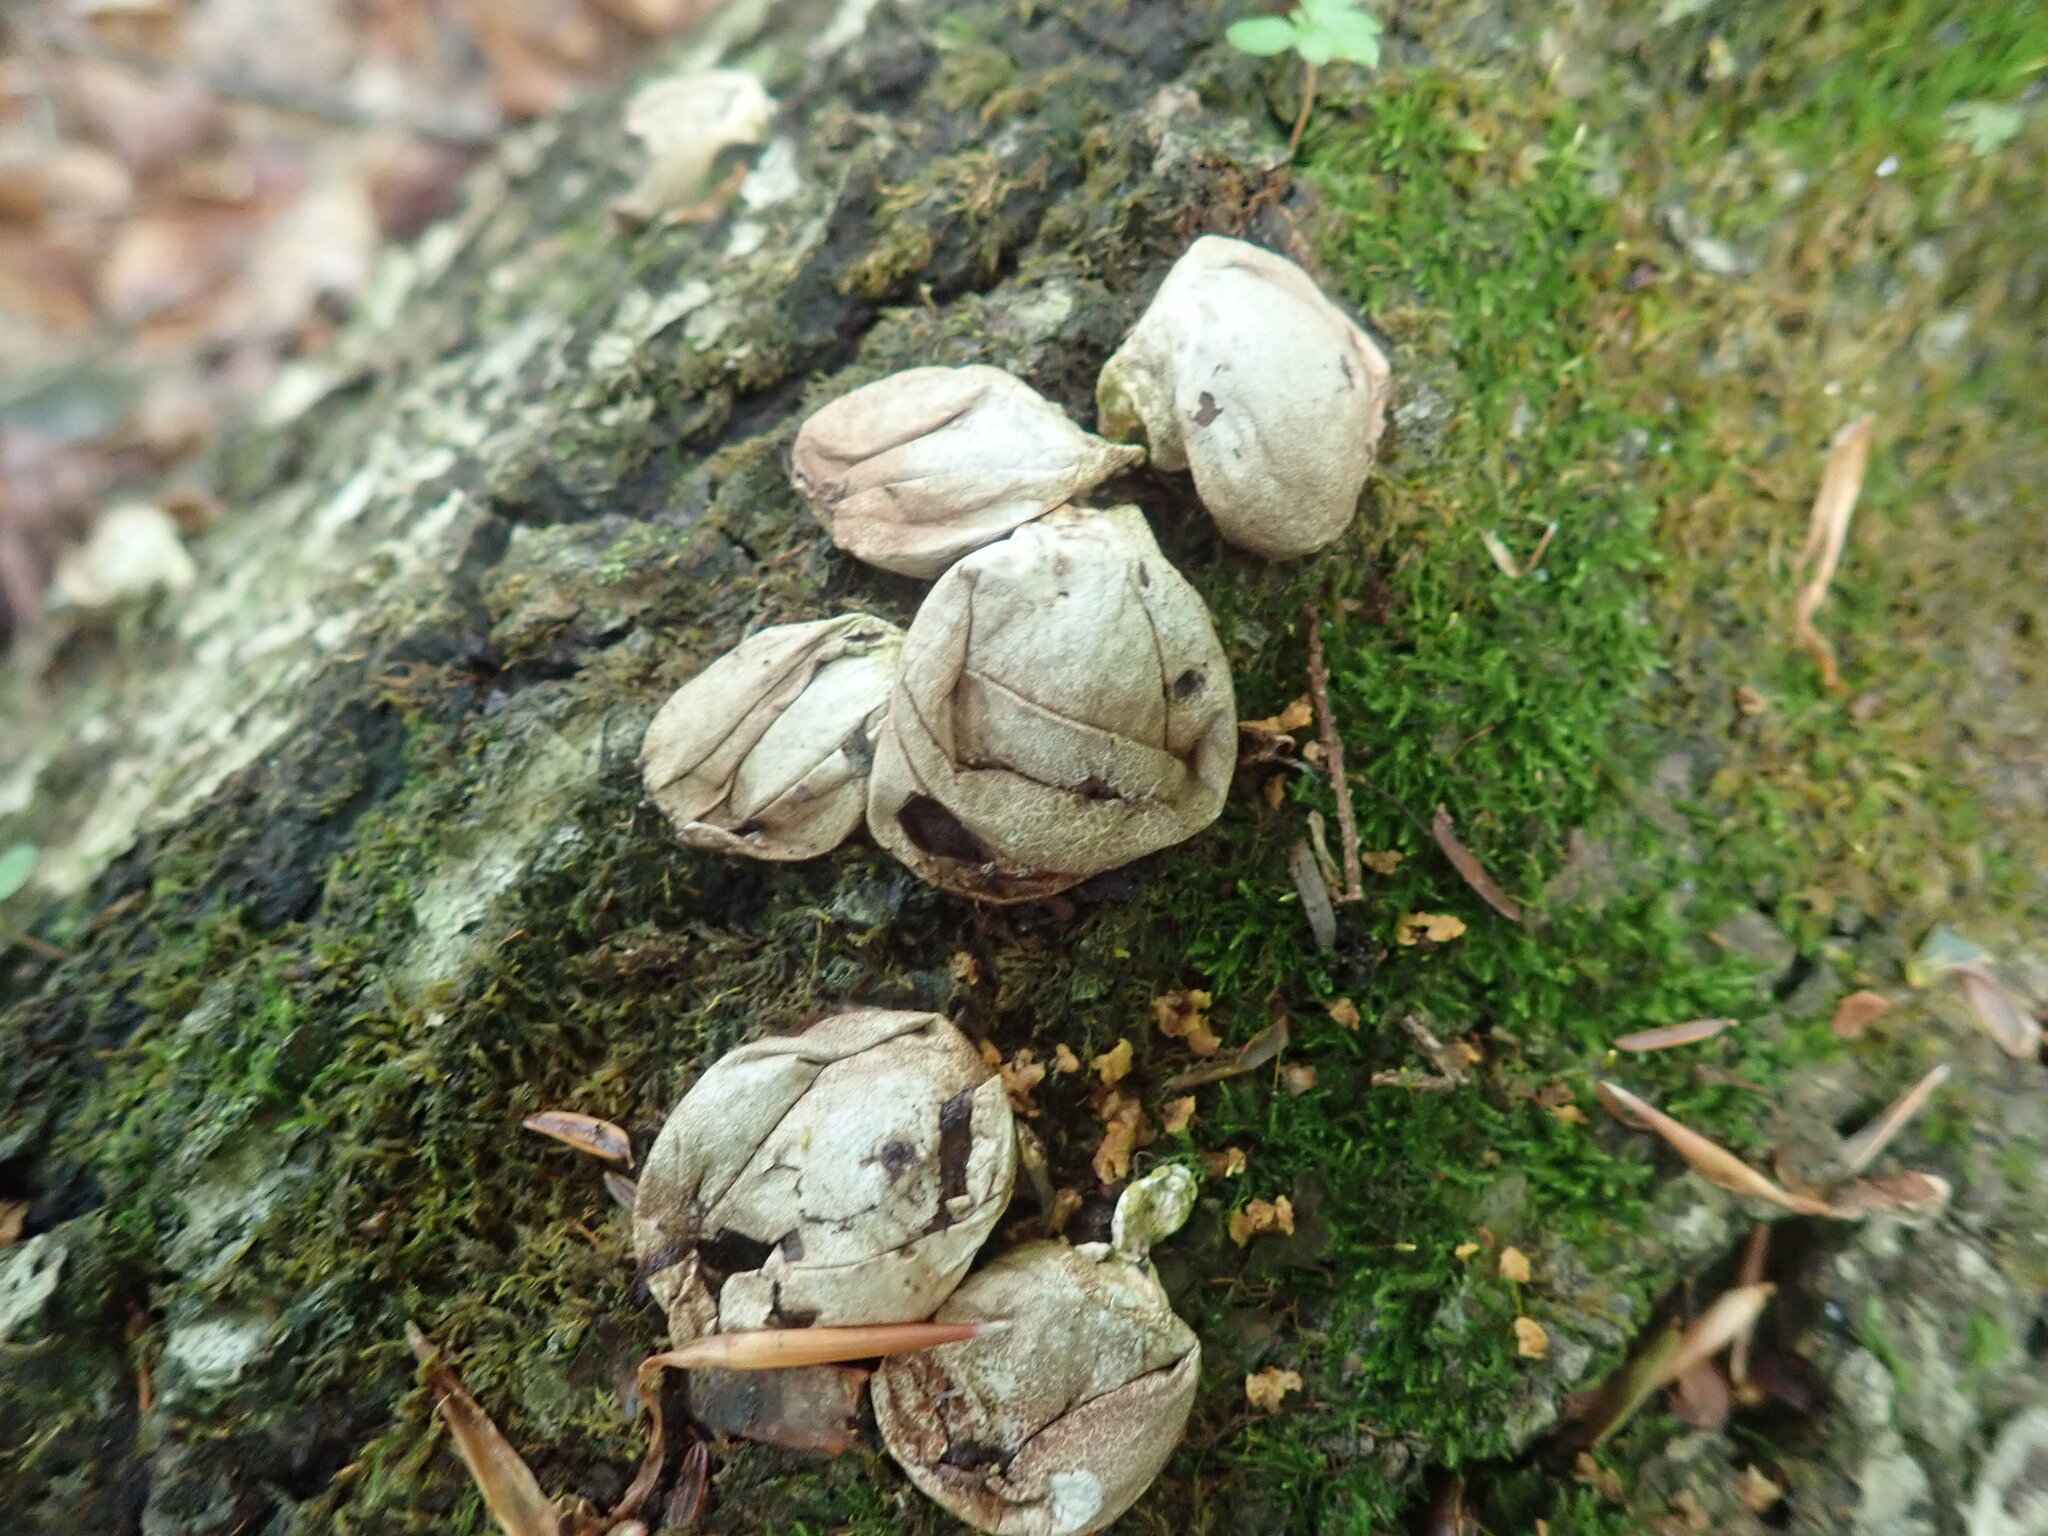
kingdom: Fungi
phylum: Basidiomycota
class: Agaricomycetes
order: Agaricales
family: Lycoperdaceae
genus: Apioperdon
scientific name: Apioperdon pyriforme
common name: Pear-shaped puffball
